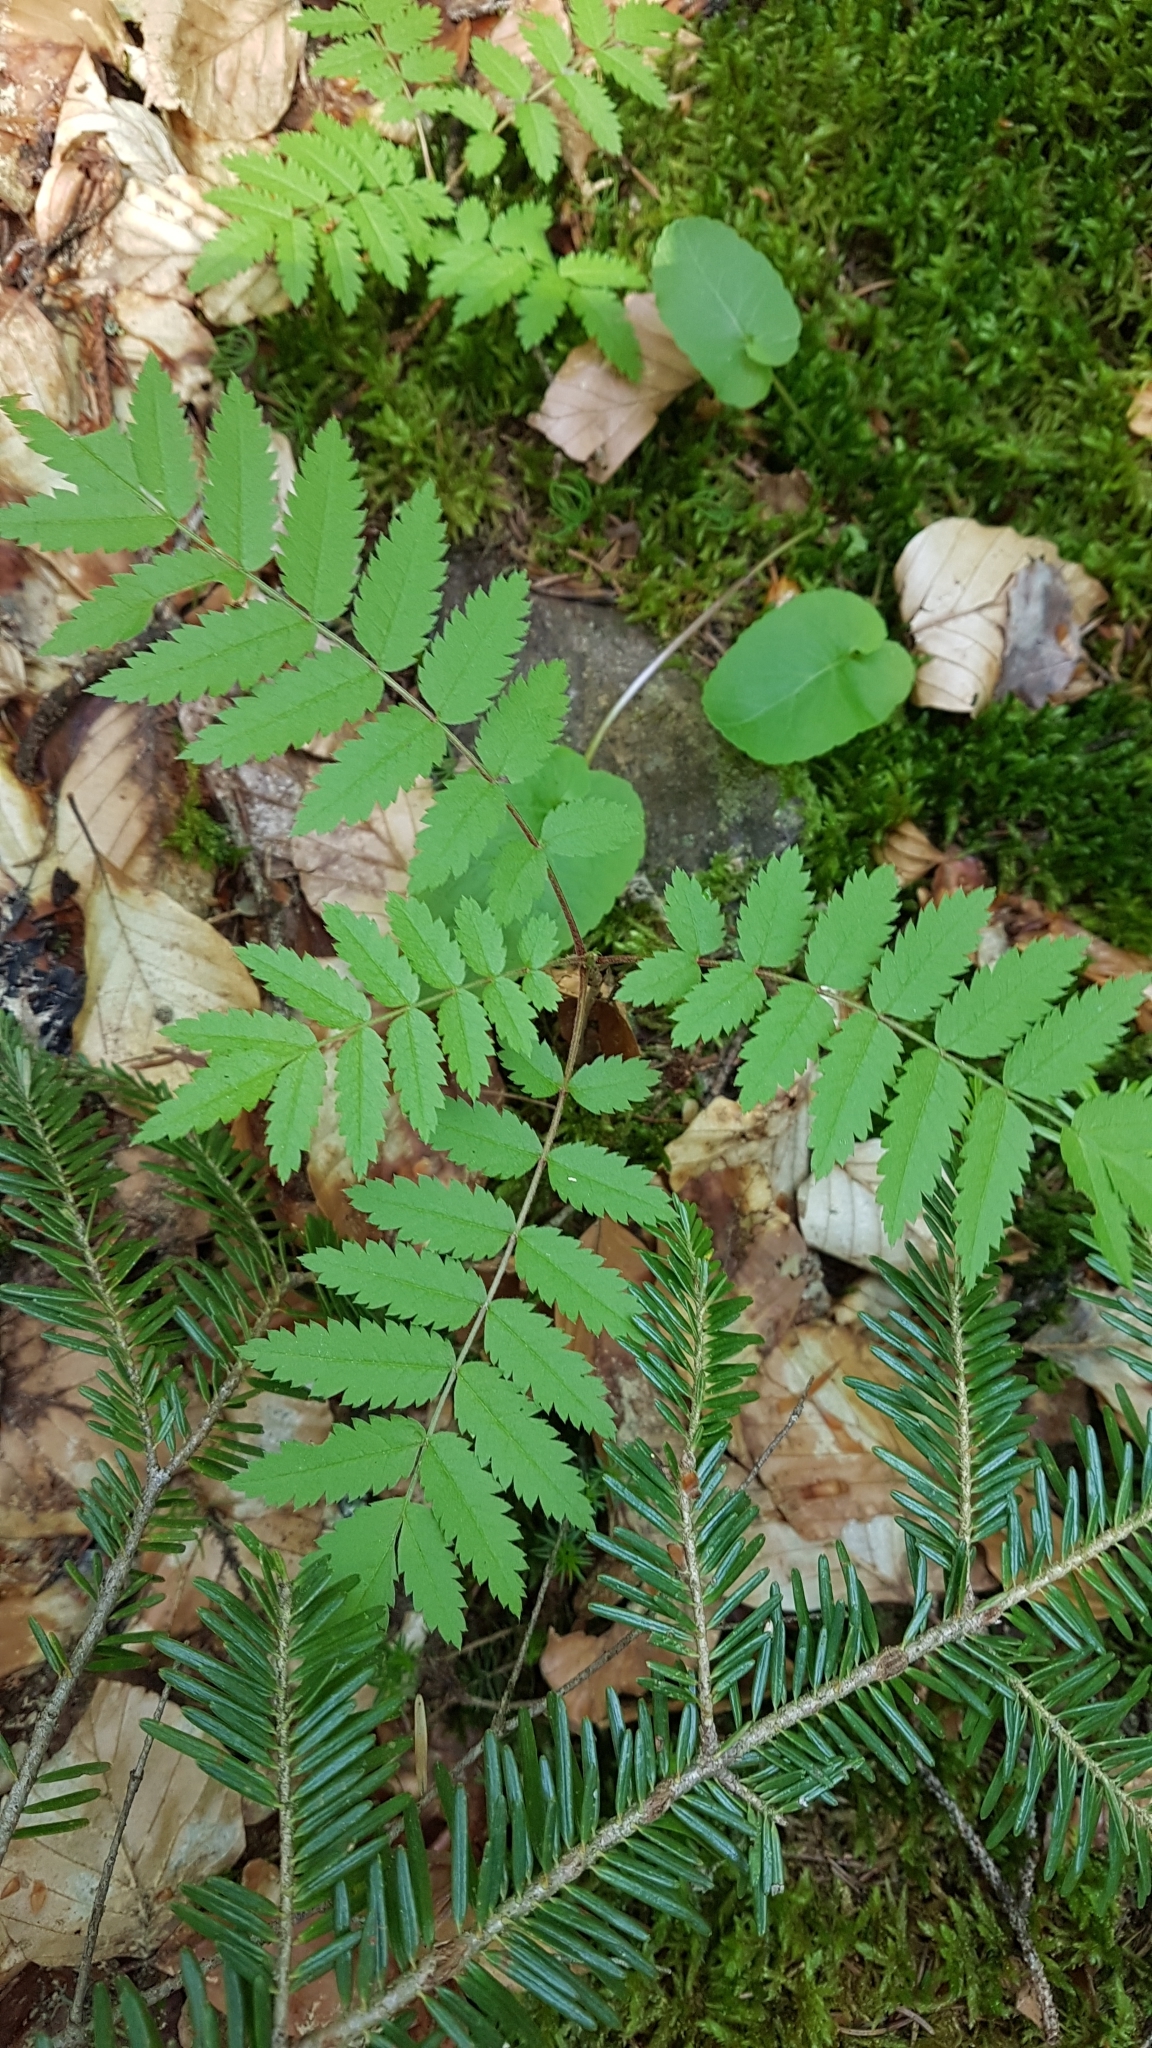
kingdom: Plantae
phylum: Tracheophyta
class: Magnoliopsida
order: Rosales
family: Rosaceae
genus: Sorbus
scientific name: Sorbus aucuparia
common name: Rowan
